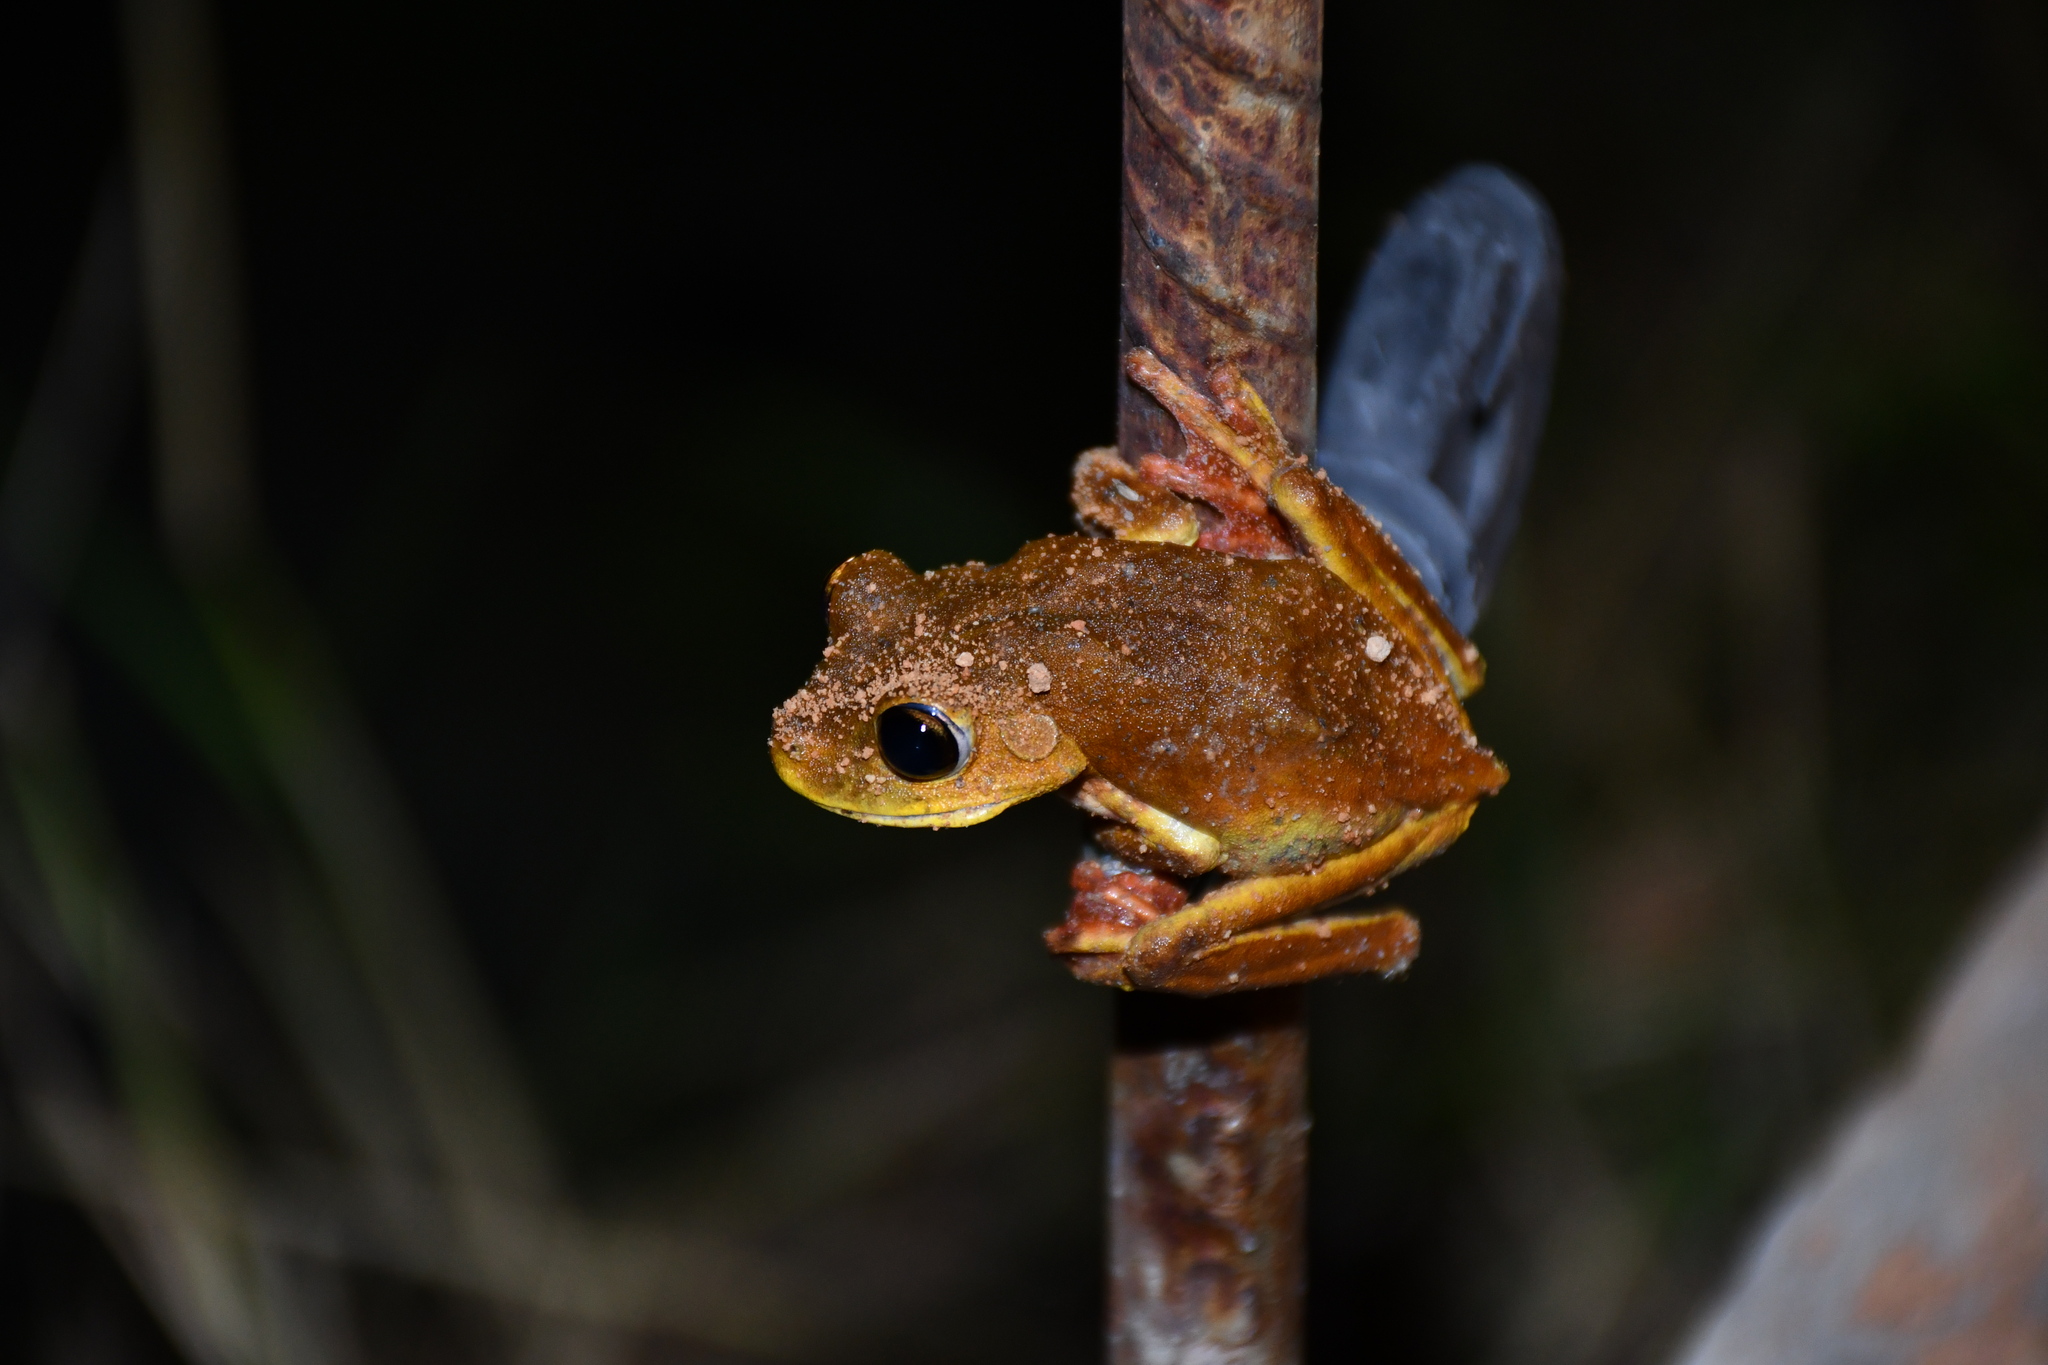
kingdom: Animalia
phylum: Chordata
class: Amphibia
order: Anura
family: Hylidae
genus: Boana
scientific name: Boana geographica
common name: Map treefrog
